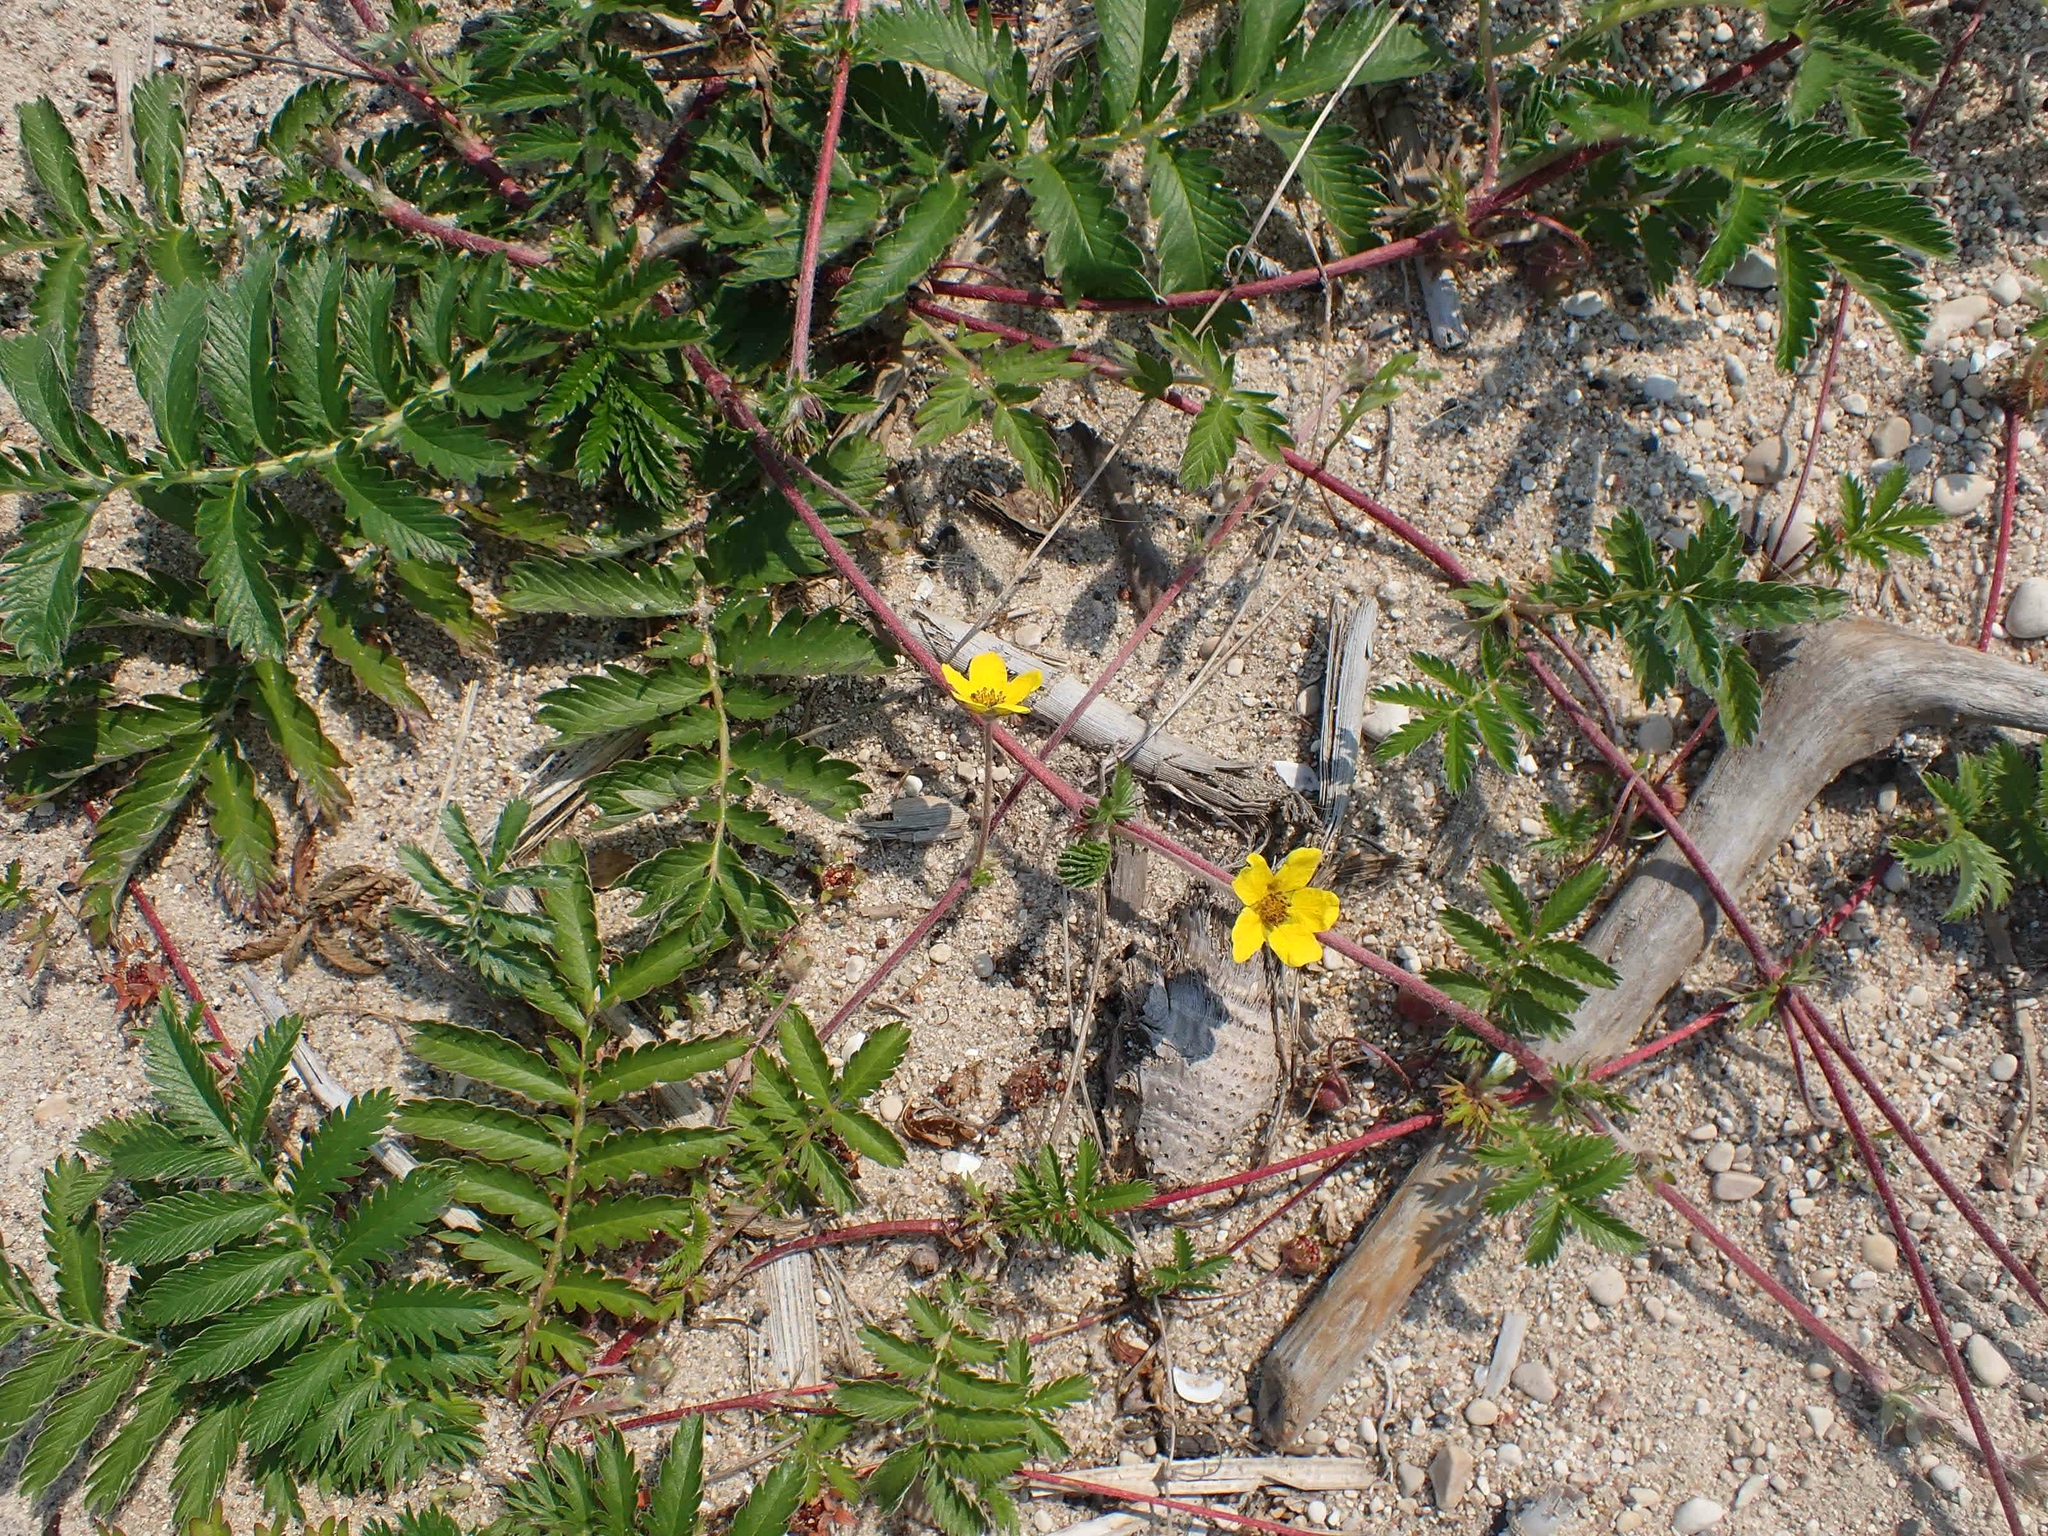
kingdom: Plantae
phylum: Tracheophyta
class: Magnoliopsida
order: Rosales
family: Rosaceae
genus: Argentina
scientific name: Argentina anserina
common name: Common silverweed
